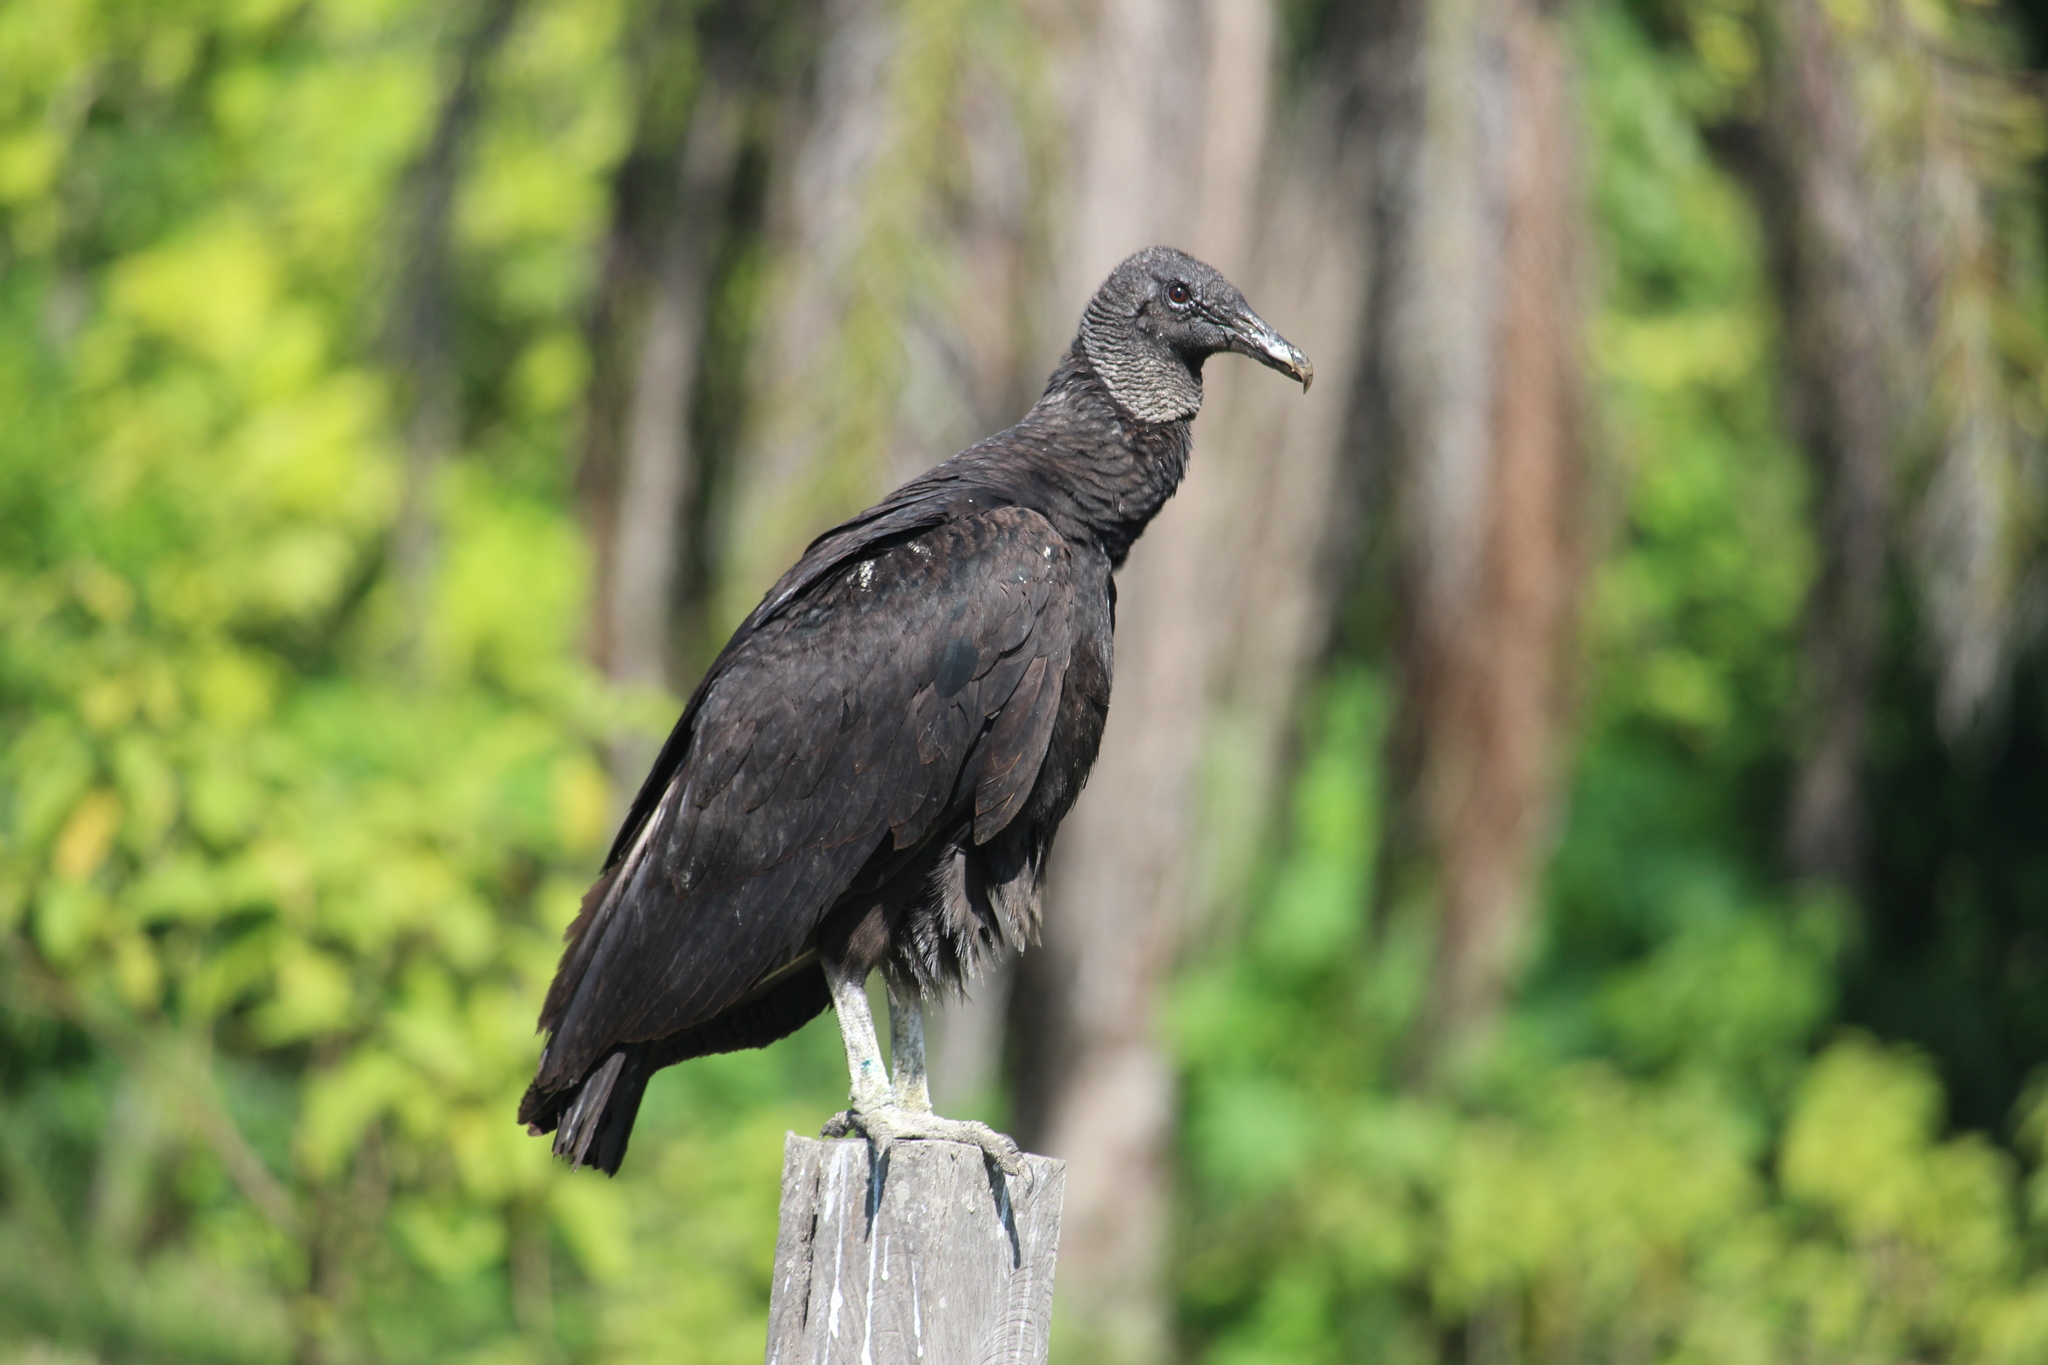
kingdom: Animalia
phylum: Chordata
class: Aves
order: Accipitriformes
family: Cathartidae
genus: Coragyps
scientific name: Coragyps atratus
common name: Black vulture
